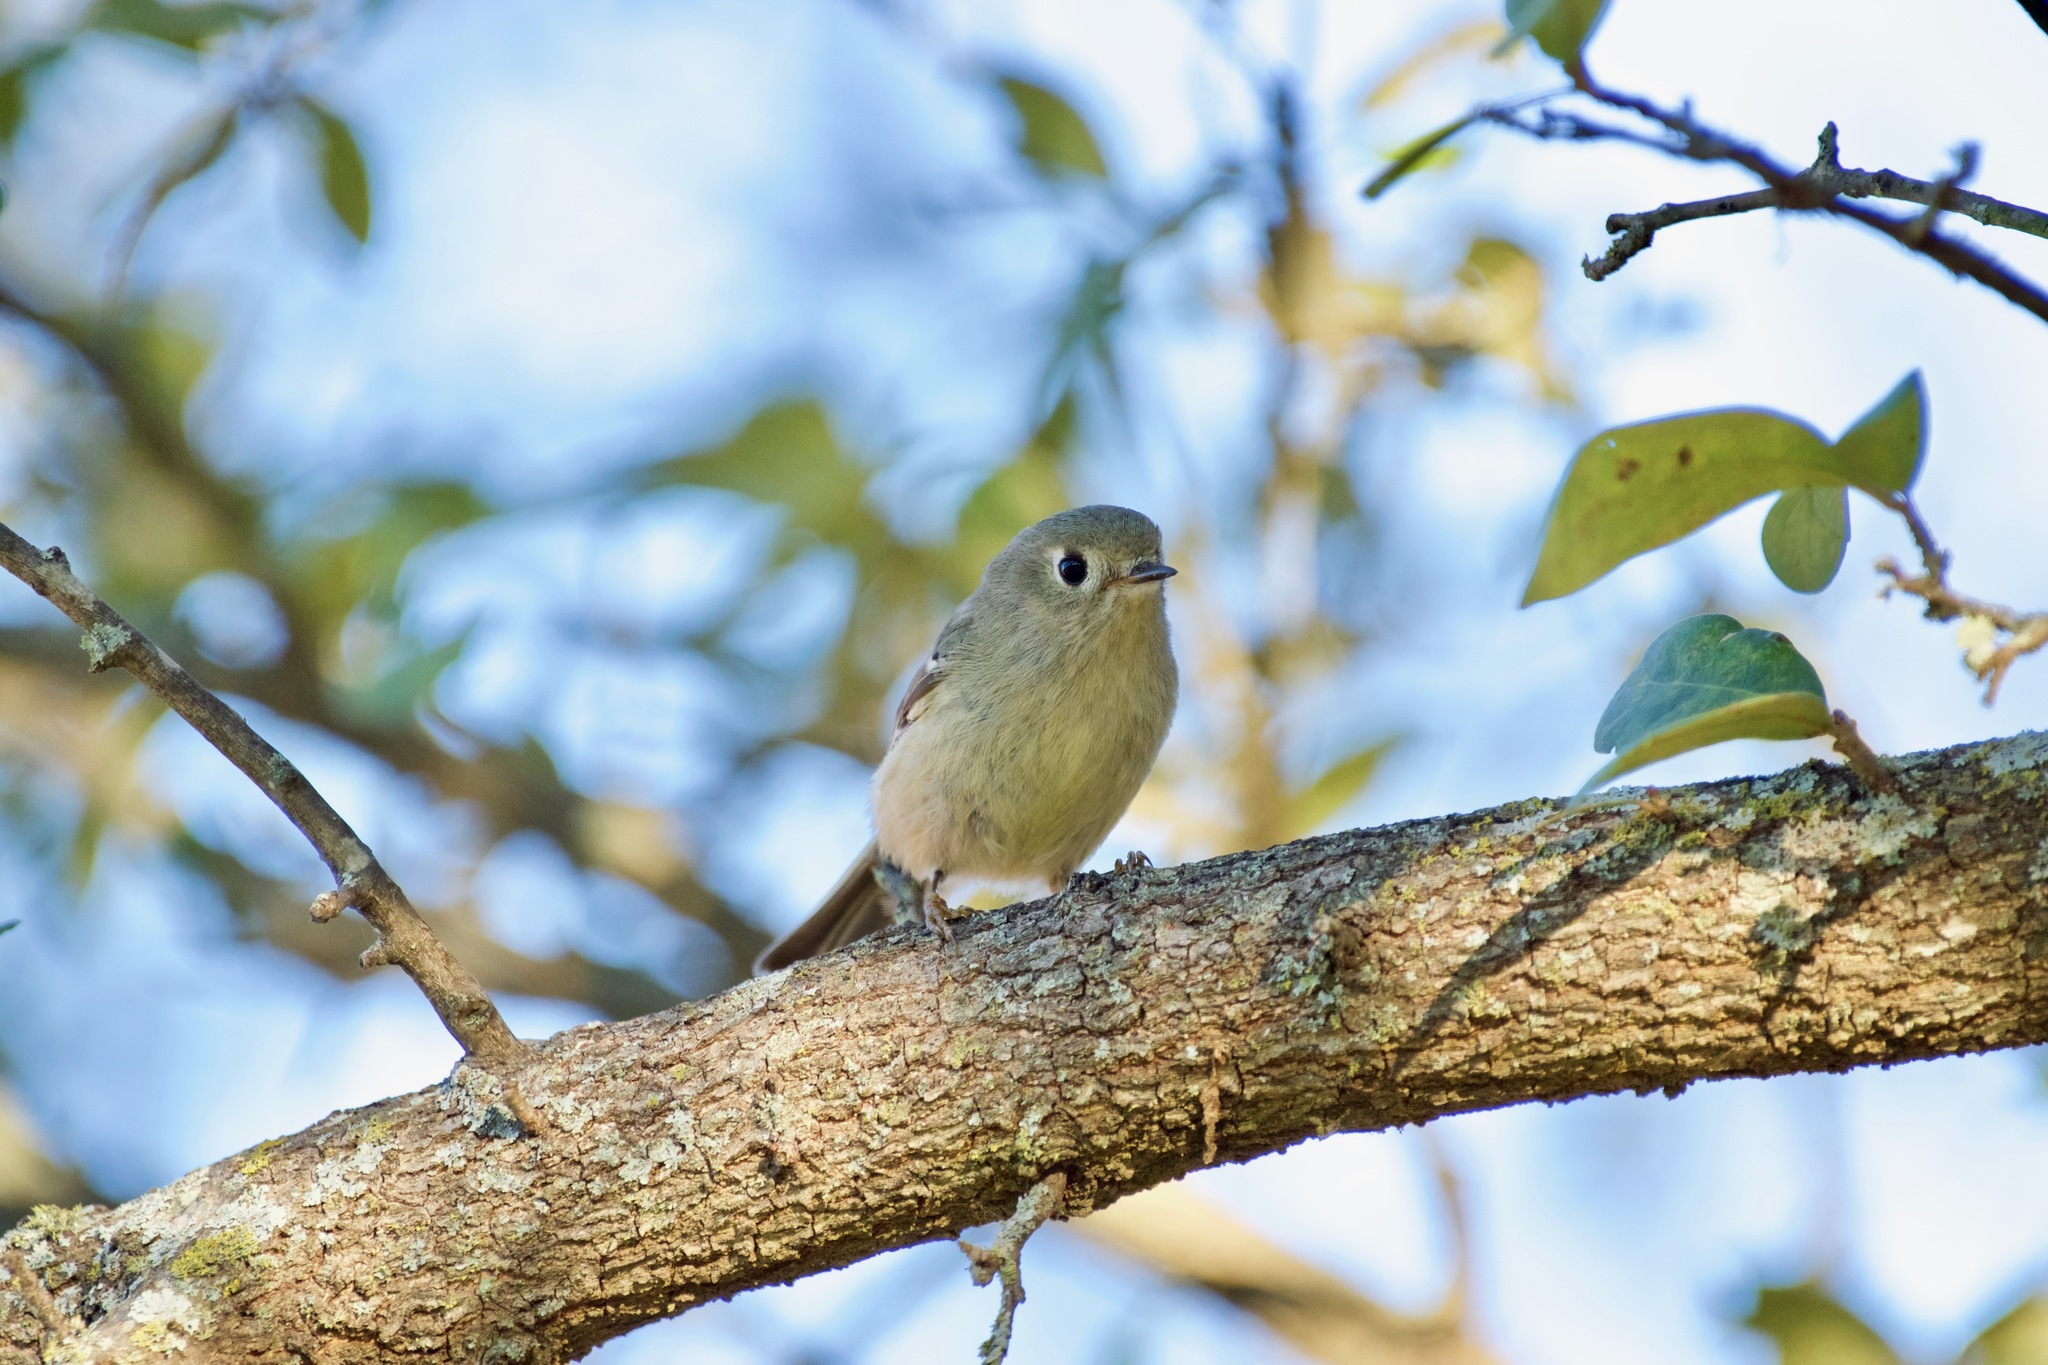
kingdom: Animalia
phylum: Chordata
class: Aves
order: Passeriformes
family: Regulidae
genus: Regulus
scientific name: Regulus calendula
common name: Ruby-crowned kinglet
